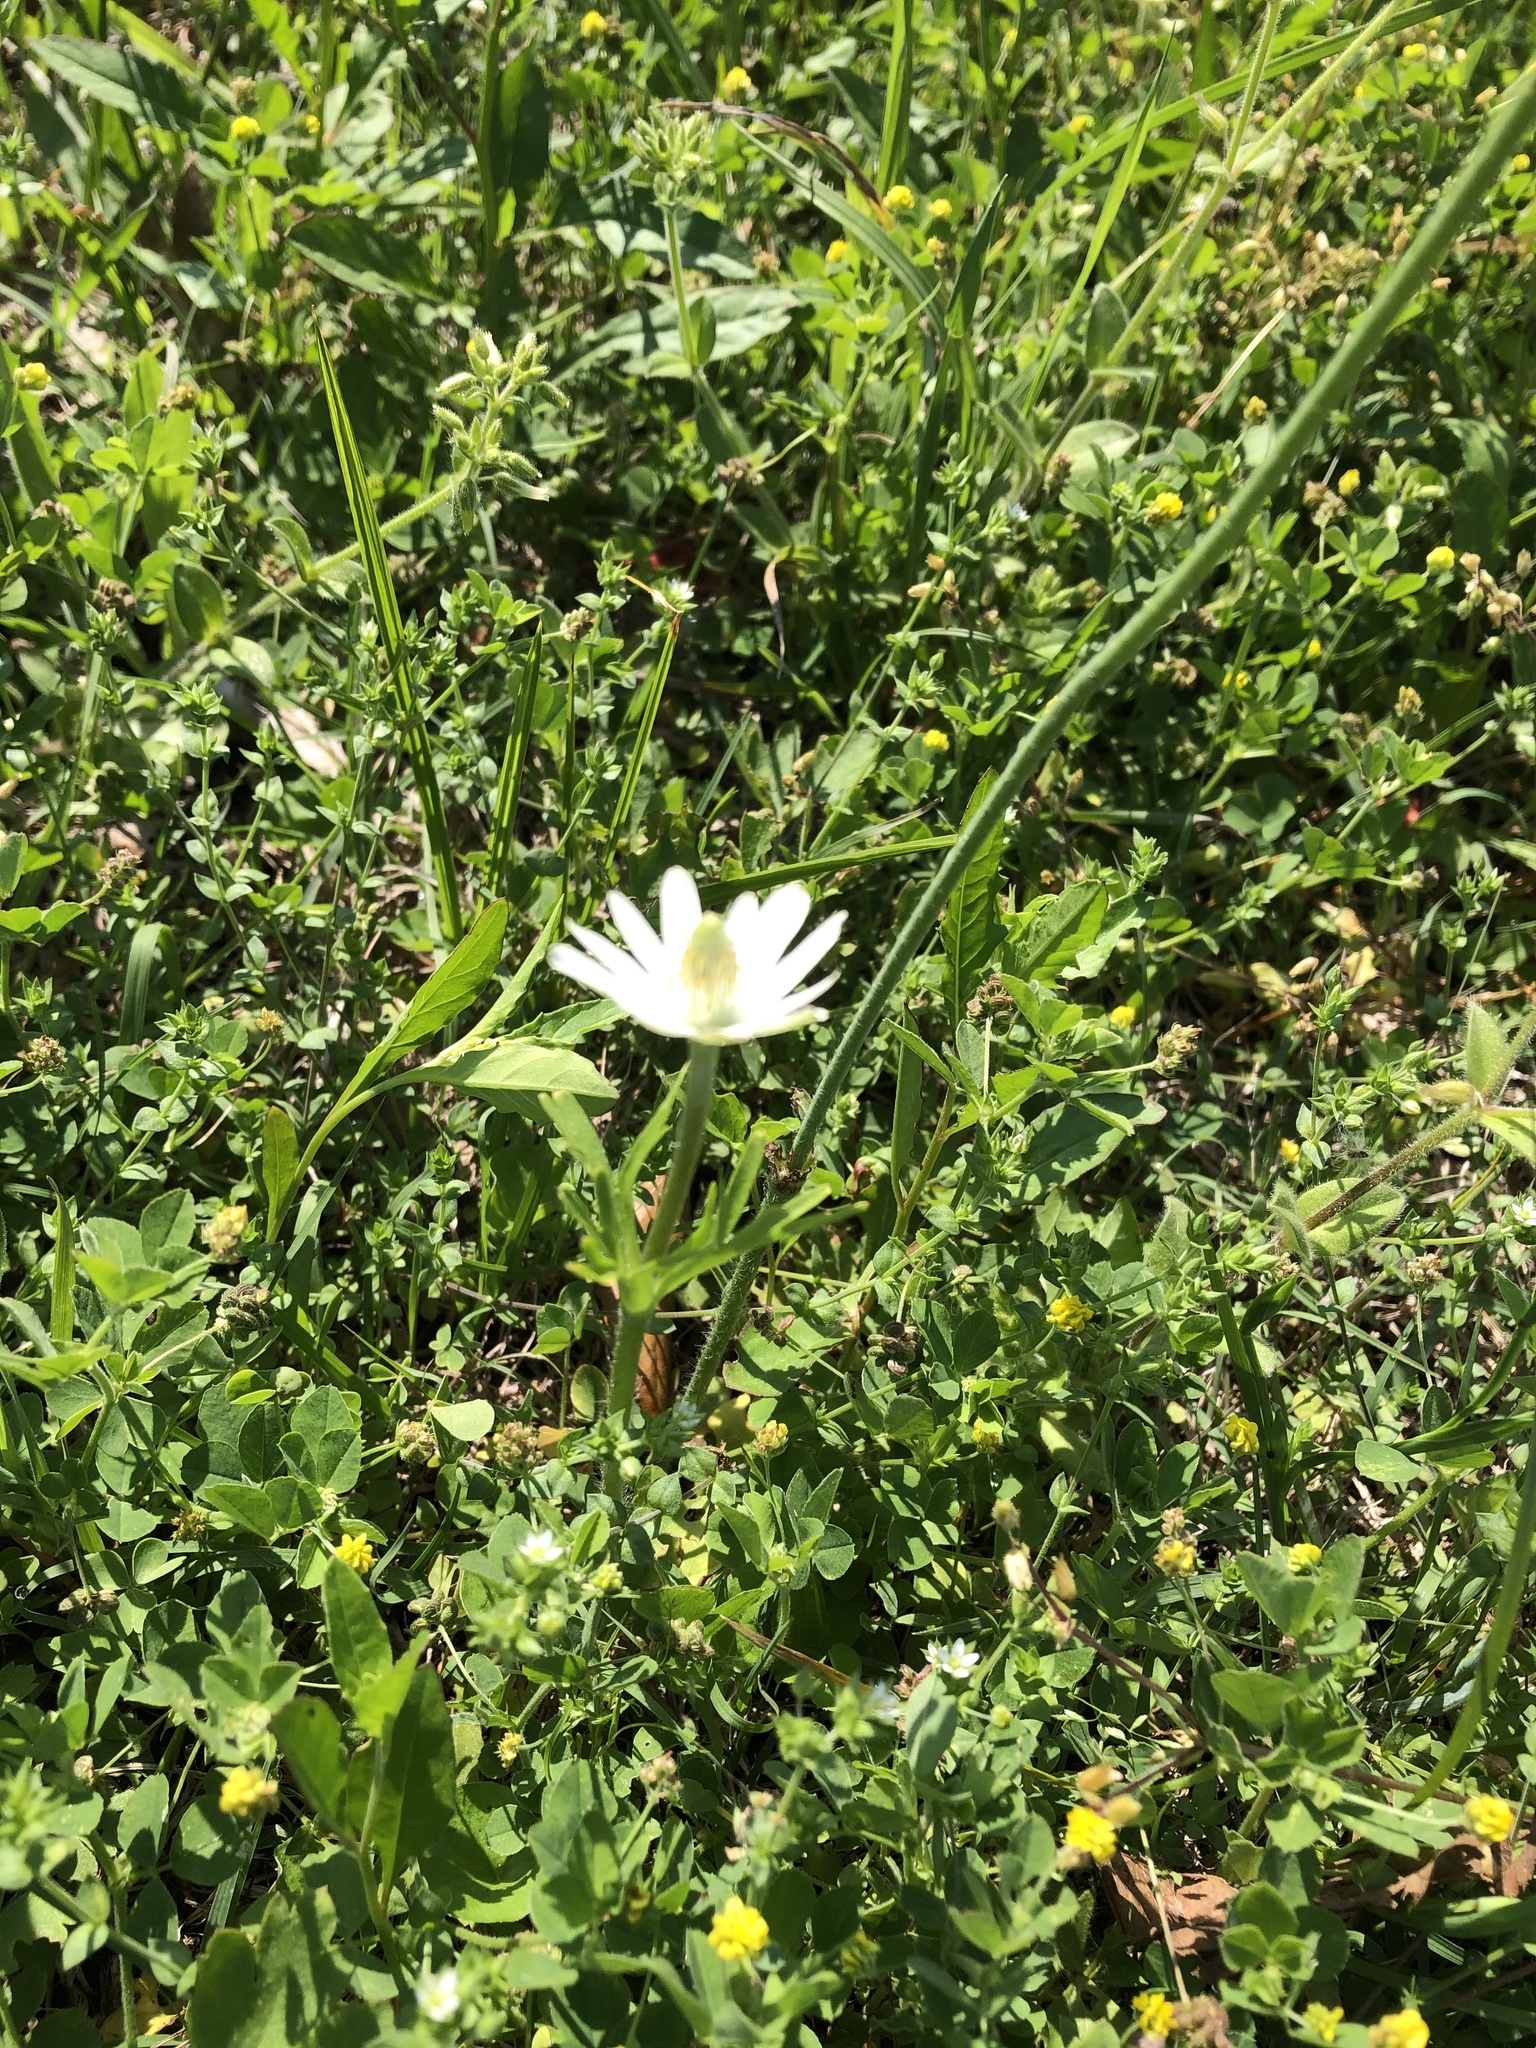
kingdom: Plantae
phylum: Tracheophyta
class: Magnoliopsida
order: Ranunculales
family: Ranunculaceae
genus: Anemone
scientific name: Anemone berlandieri
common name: Ten-petal anemone
